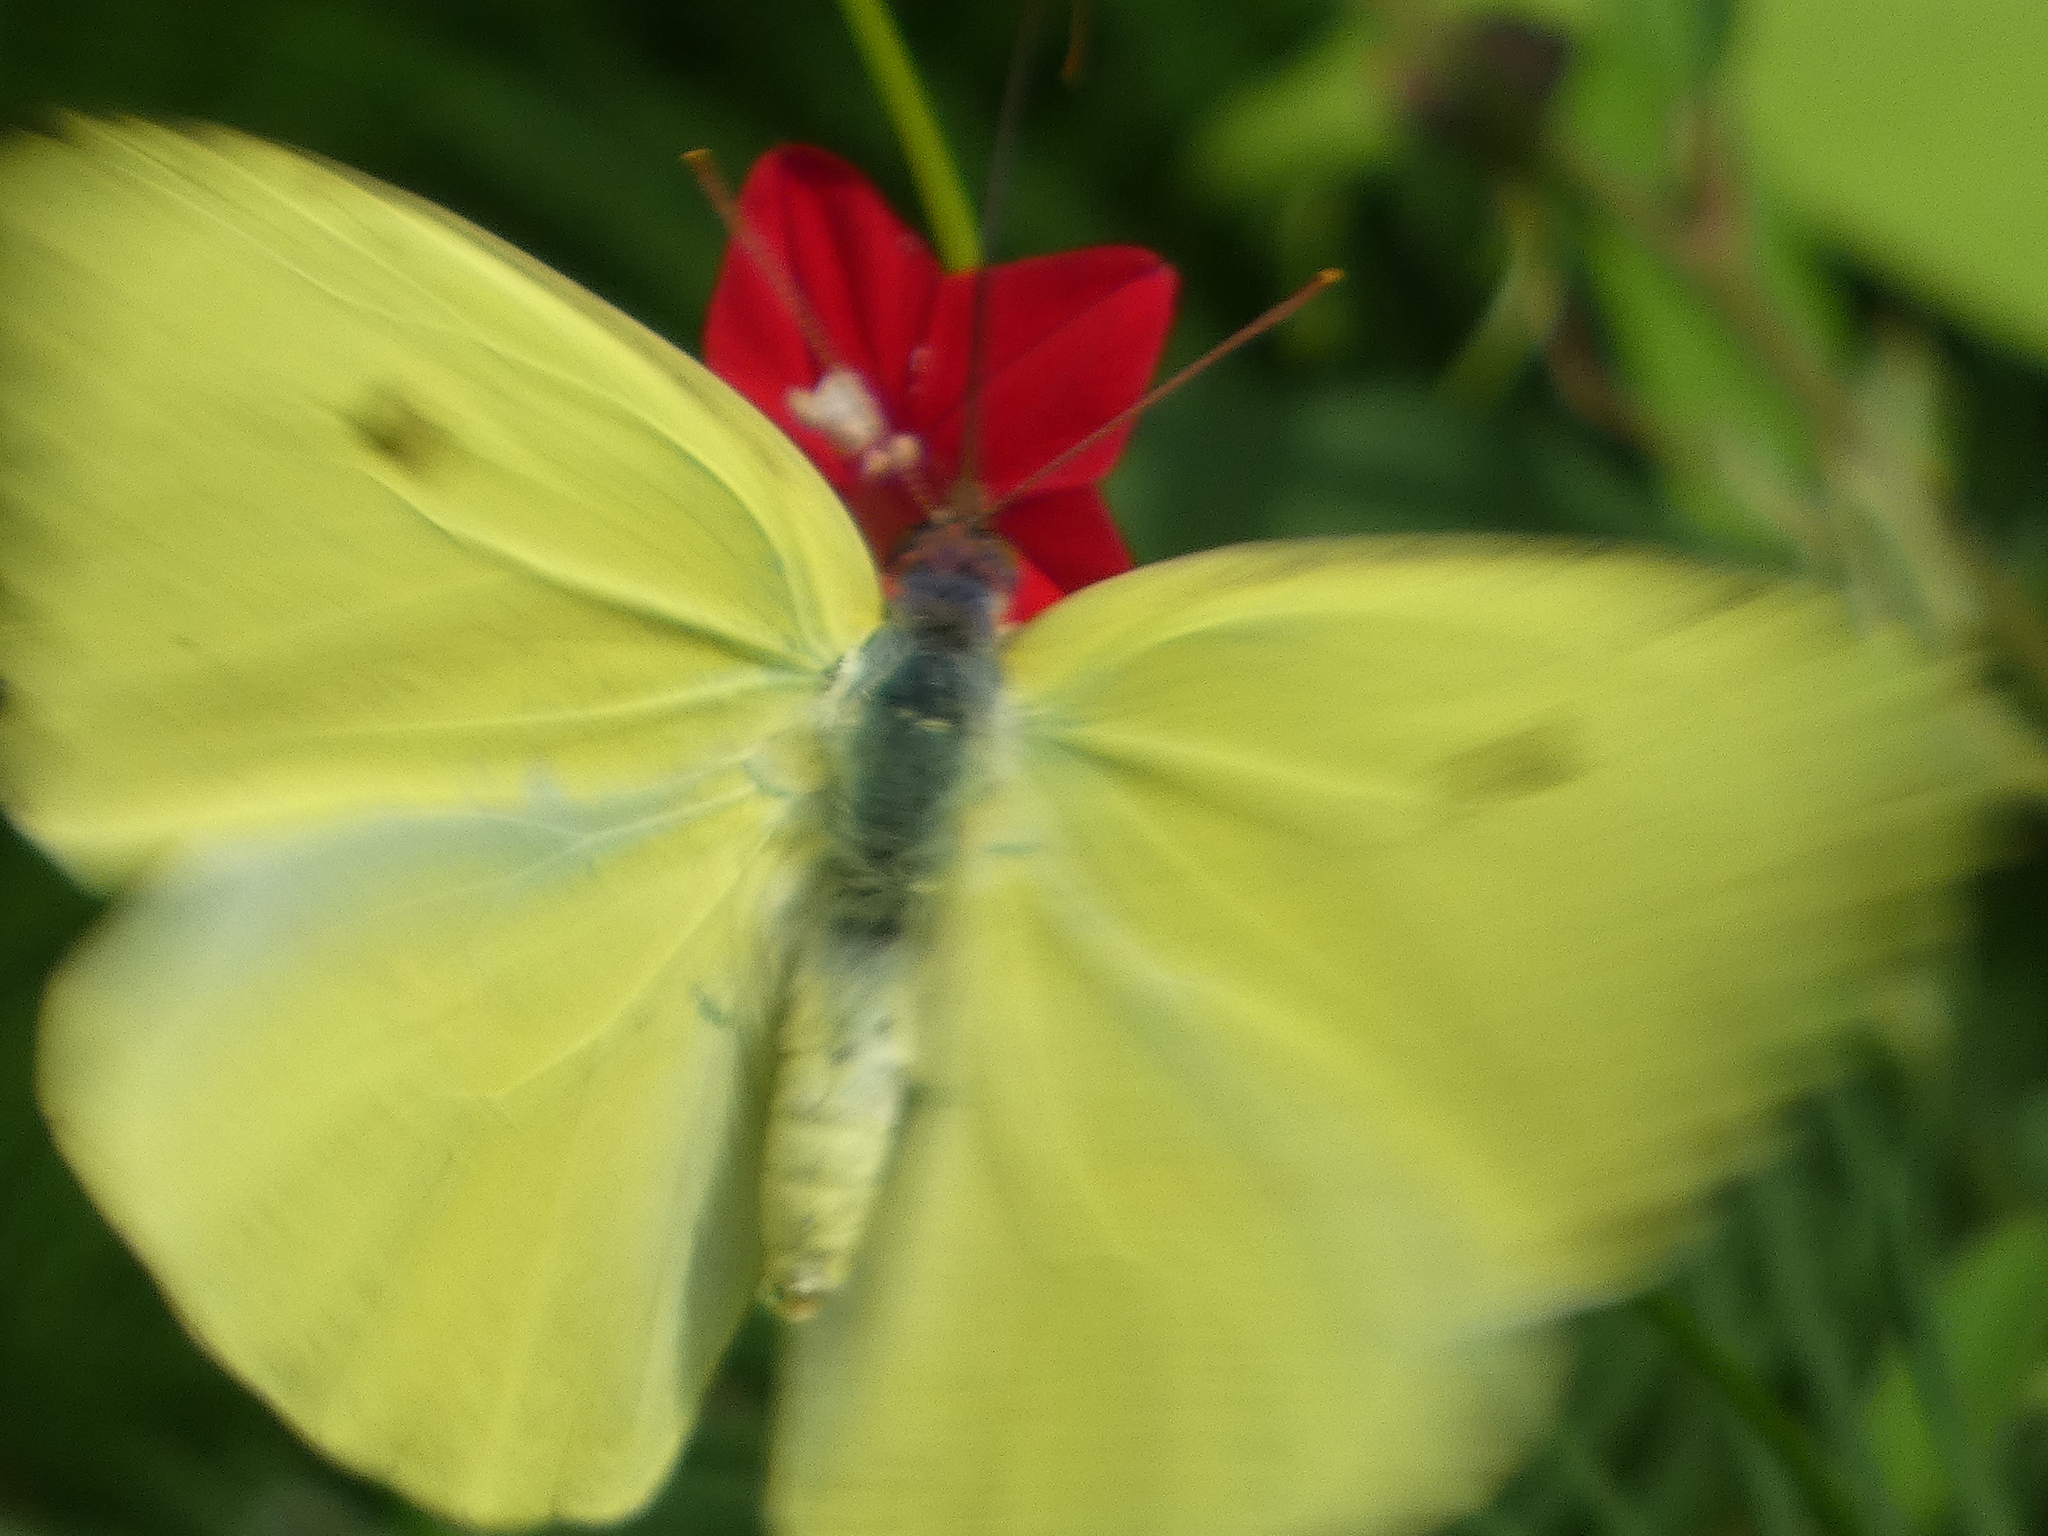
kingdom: Animalia
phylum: Arthropoda
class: Insecta
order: Lepidoptera
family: Pieridae
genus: Phoebis
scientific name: Phoebis sennae
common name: Cloudless sulphur
